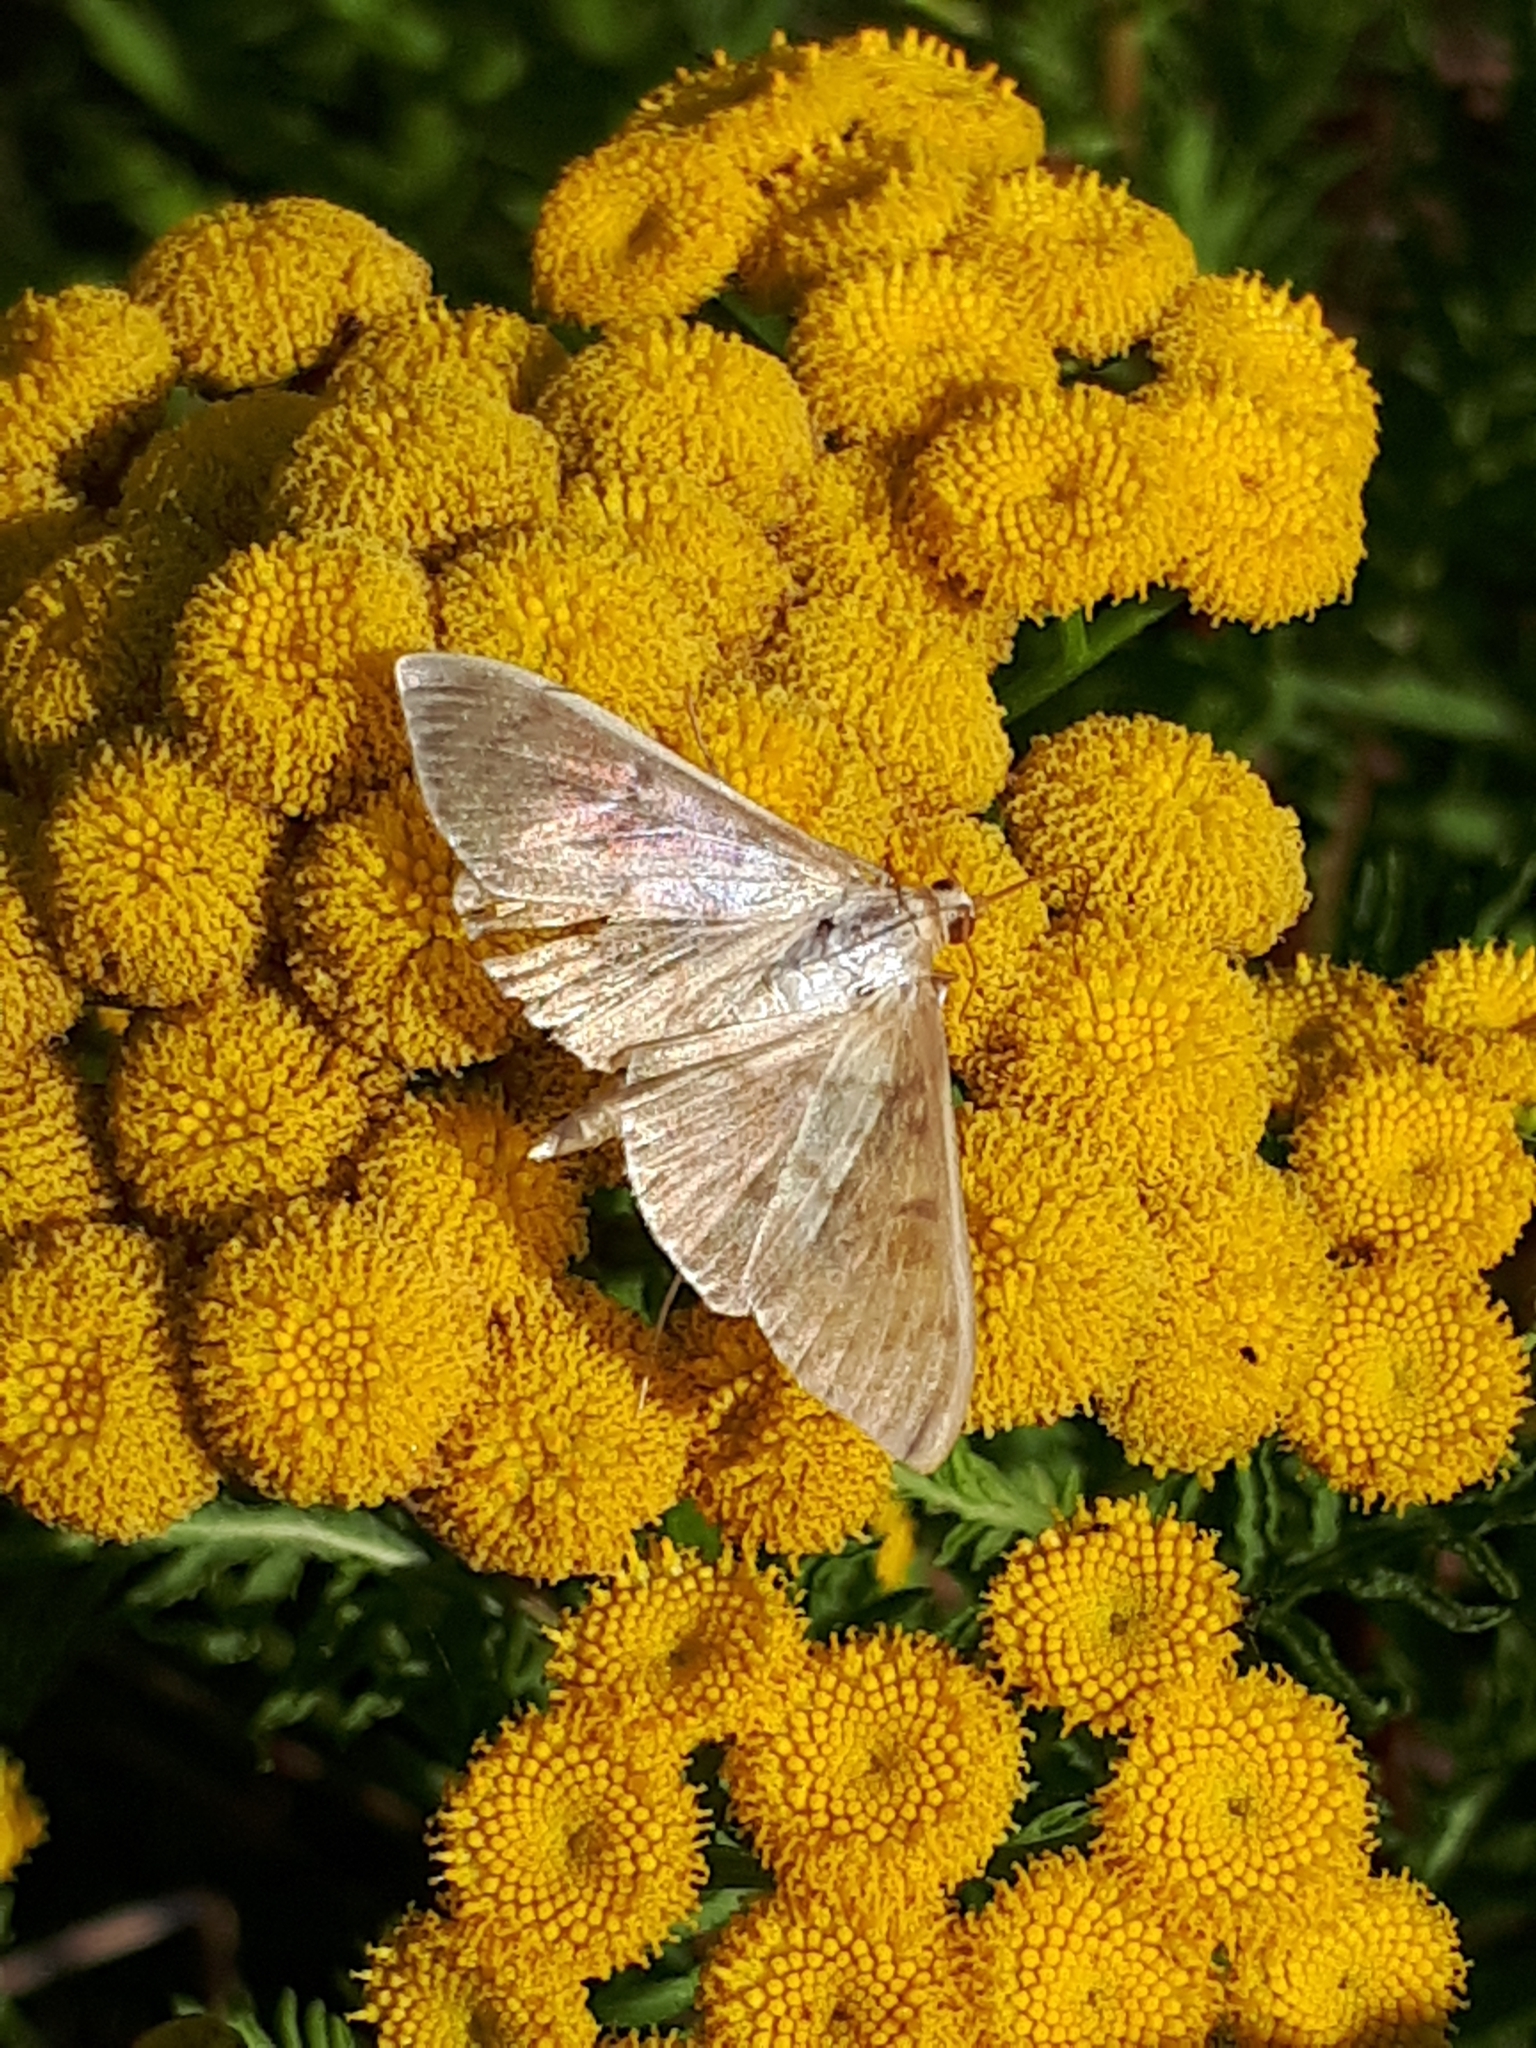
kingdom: Animalia
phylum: Arthropoda
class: Insecta
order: Lepidoptera
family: Crambidae
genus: Patania
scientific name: Patania ruralis
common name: Mother of pearl
